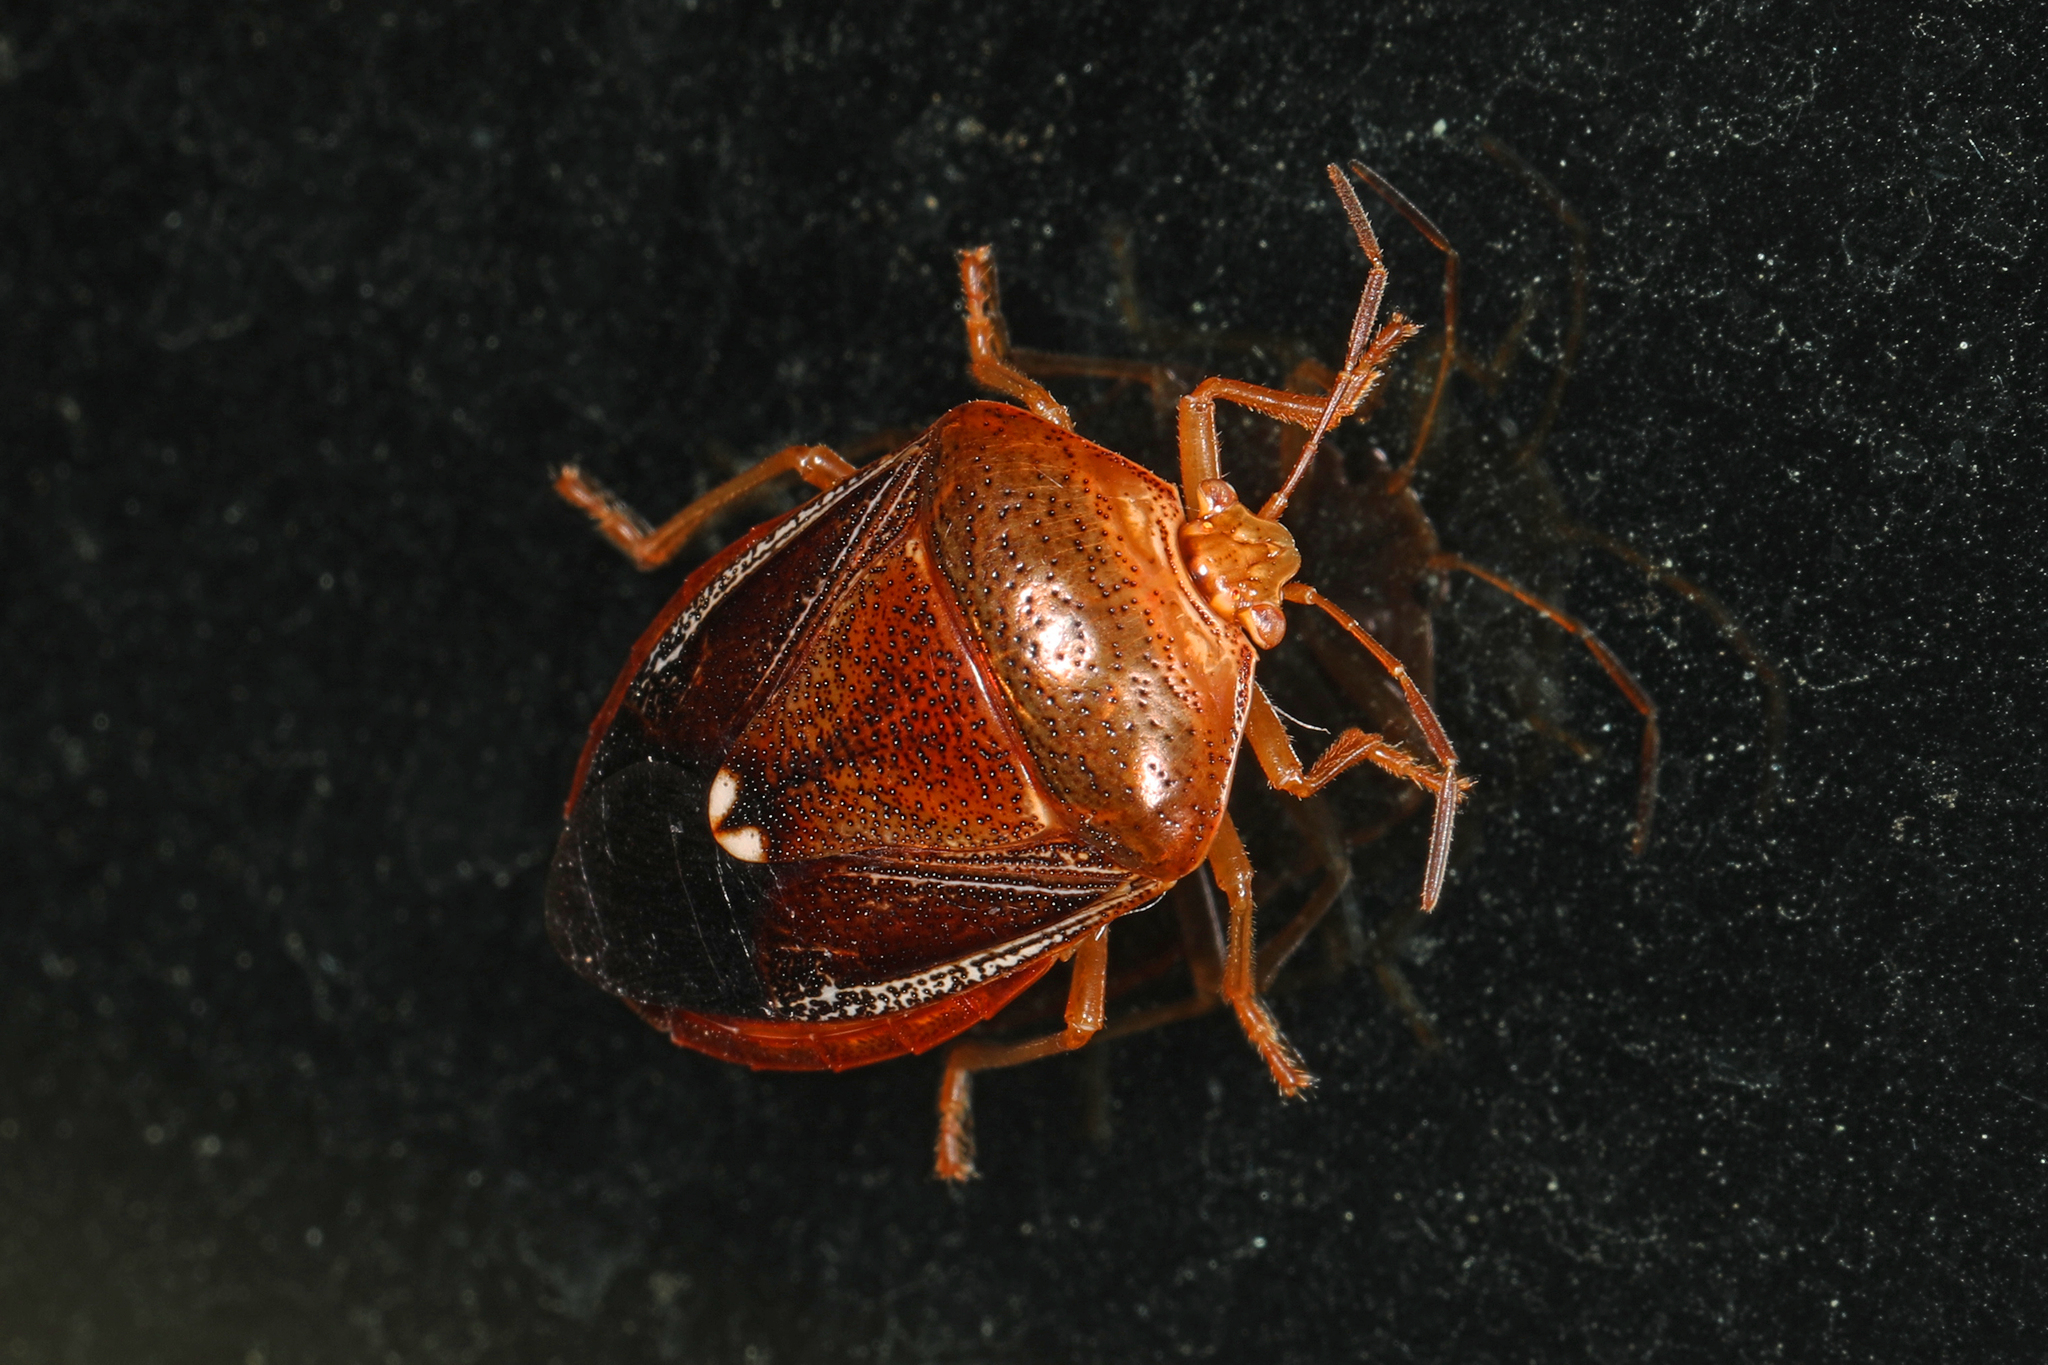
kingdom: Animalia
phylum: Arthropoda
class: Insecta
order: Hemiptera
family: Pentatomidae
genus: Edessa
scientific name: Edessa bifida
